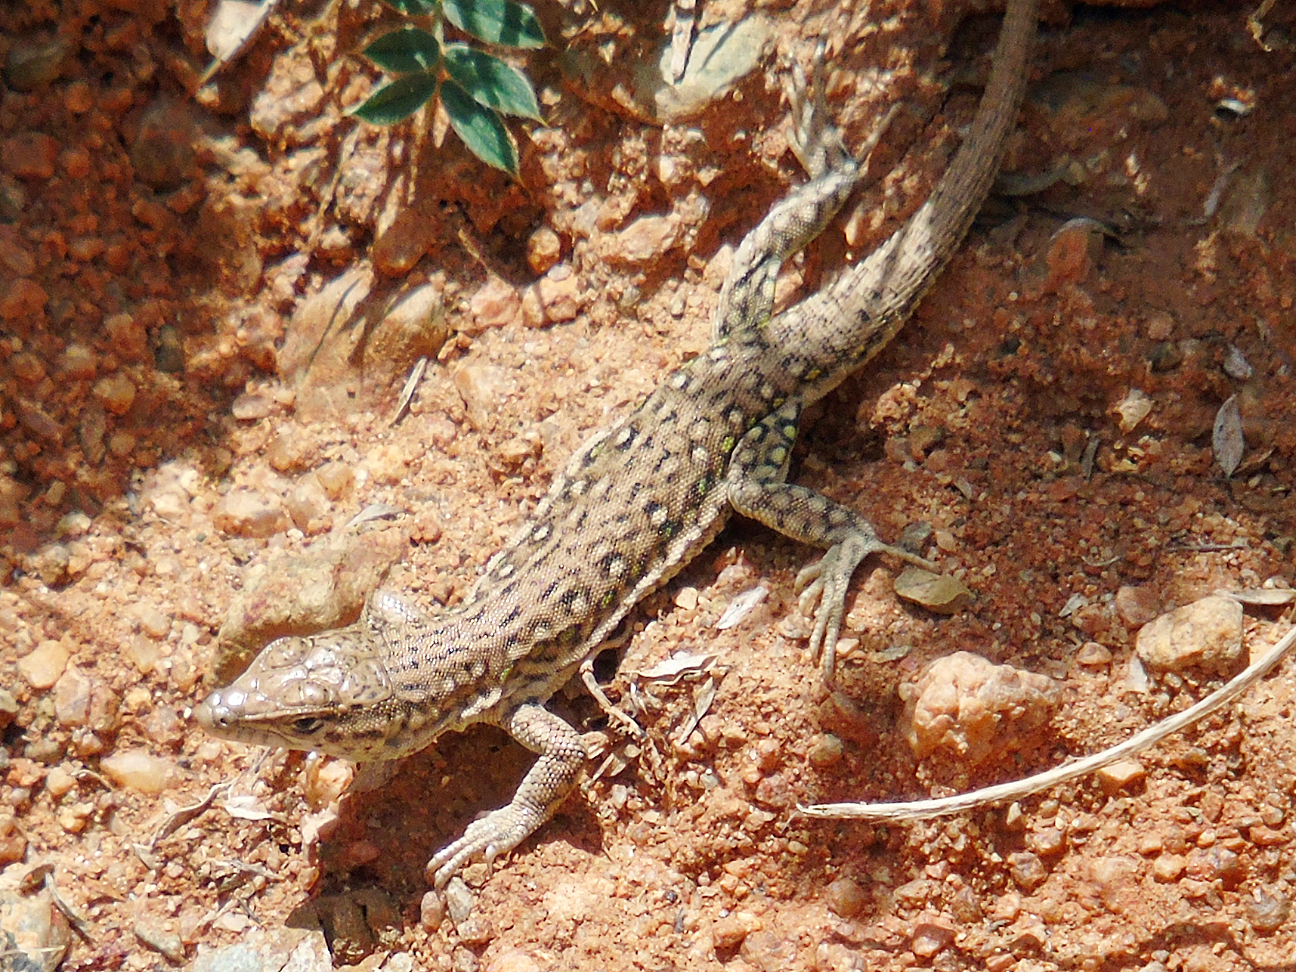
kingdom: Animalia
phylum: Chordata
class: Squamata
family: Lacertidae
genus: Eremias
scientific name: Eremias stummeri
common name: Stummer’s racerunner
